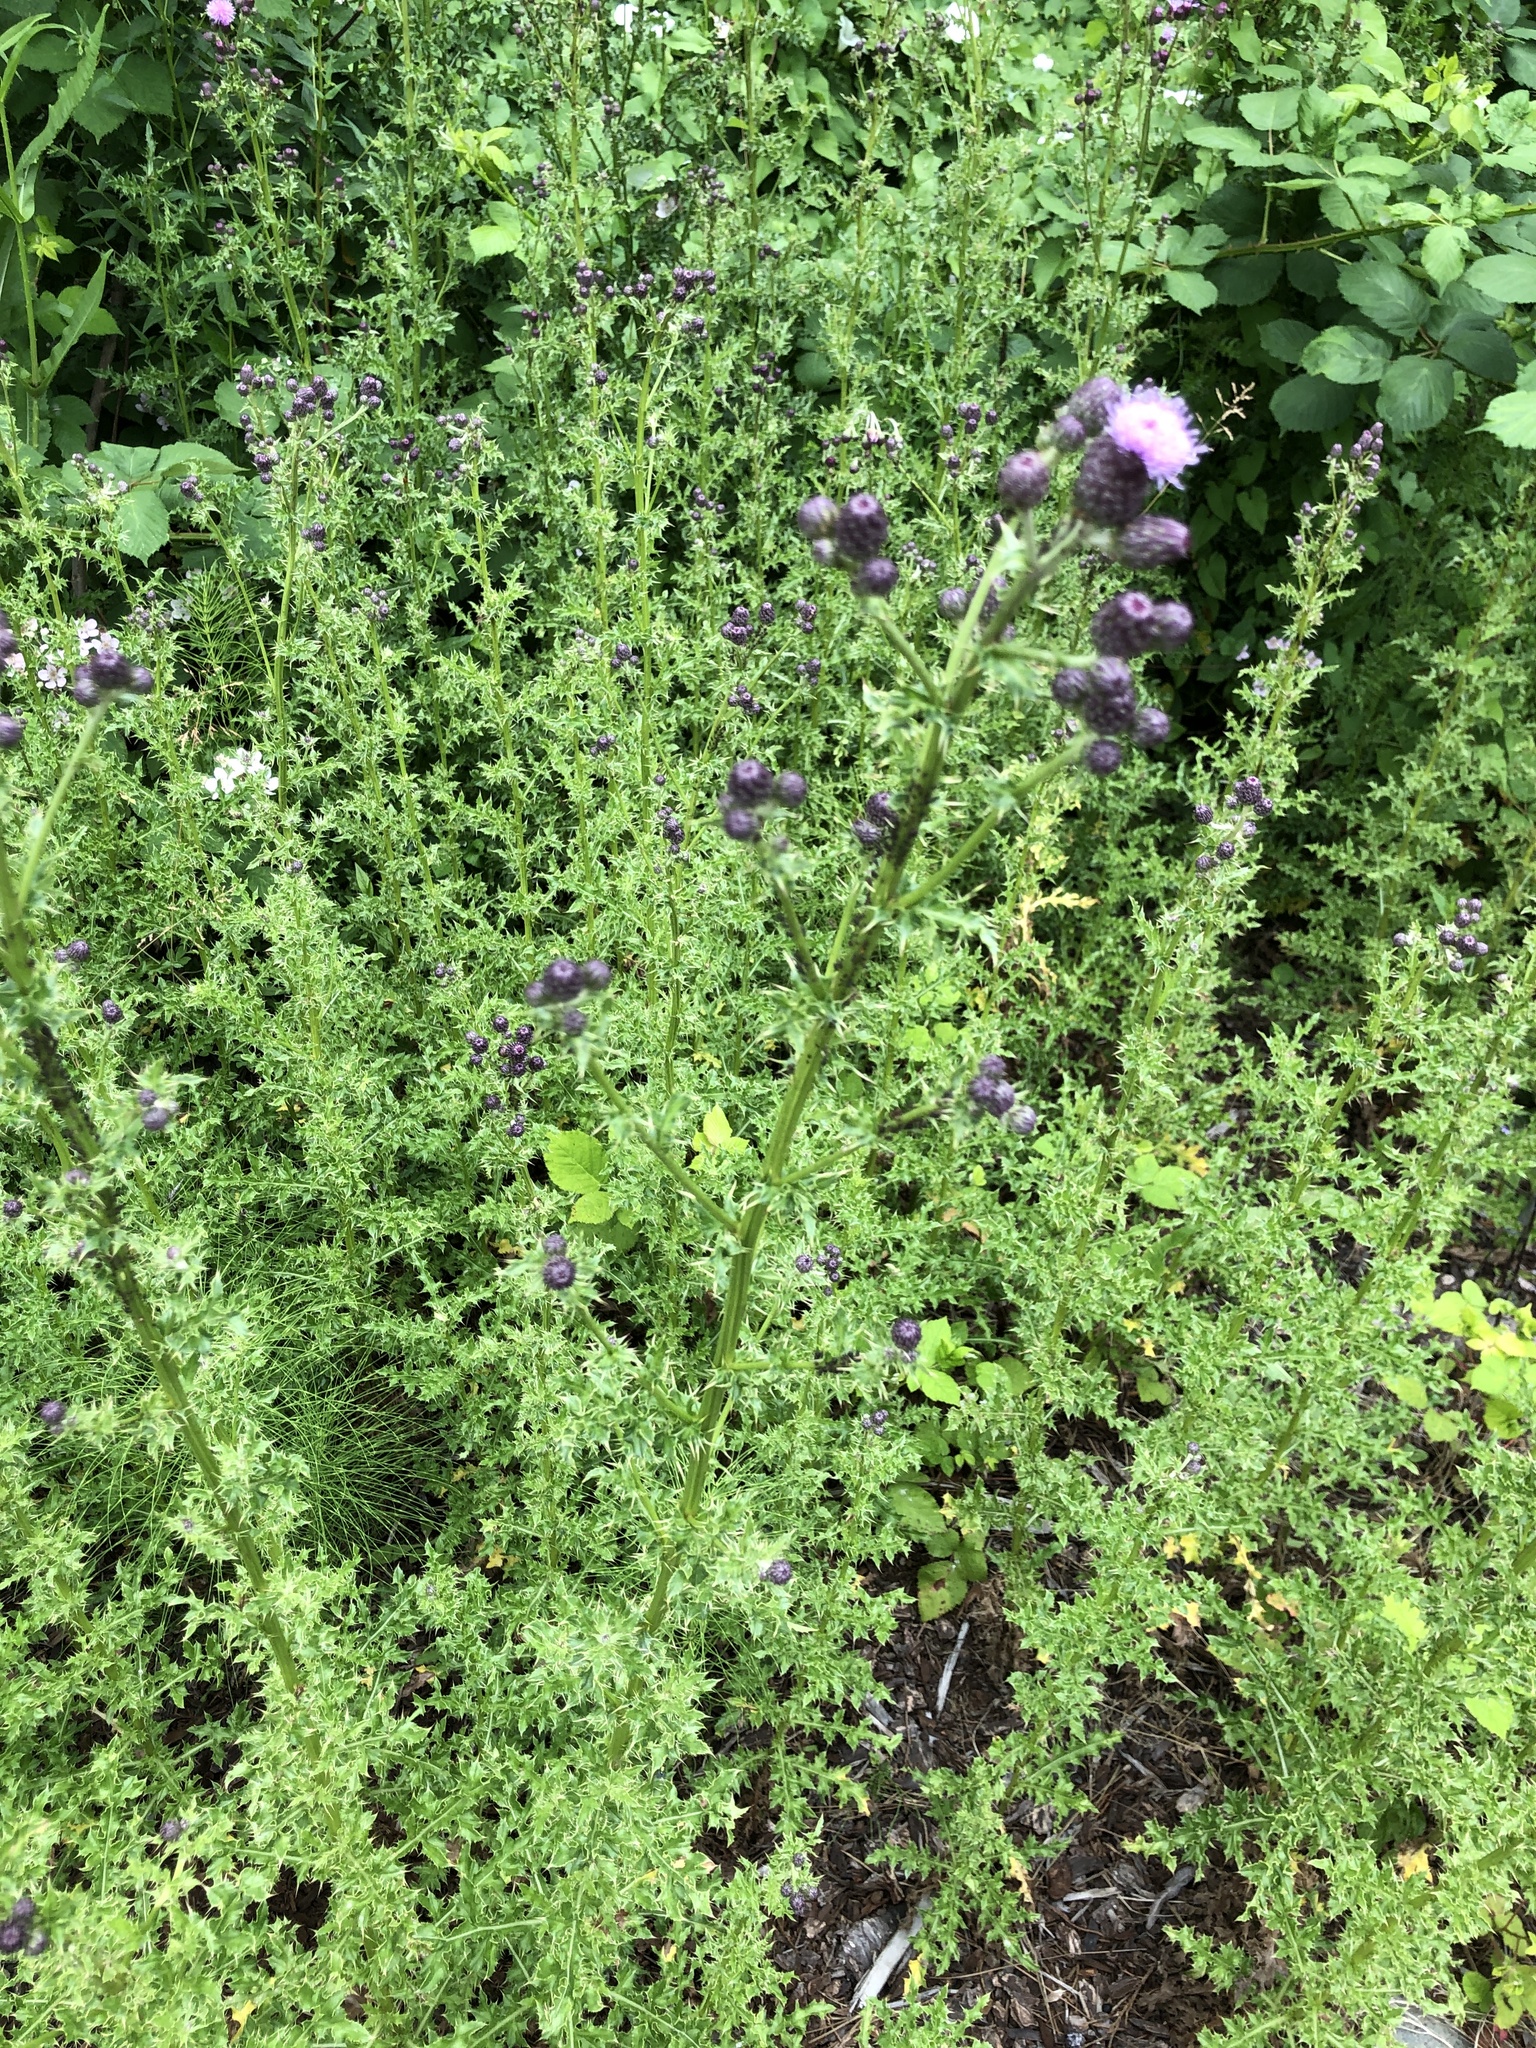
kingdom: Plantae
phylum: Tracheophyta
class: Magnoliopsida
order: Asterales
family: Asteraceae
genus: Cirsium
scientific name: Cirsium arvense
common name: Creeping thistle
